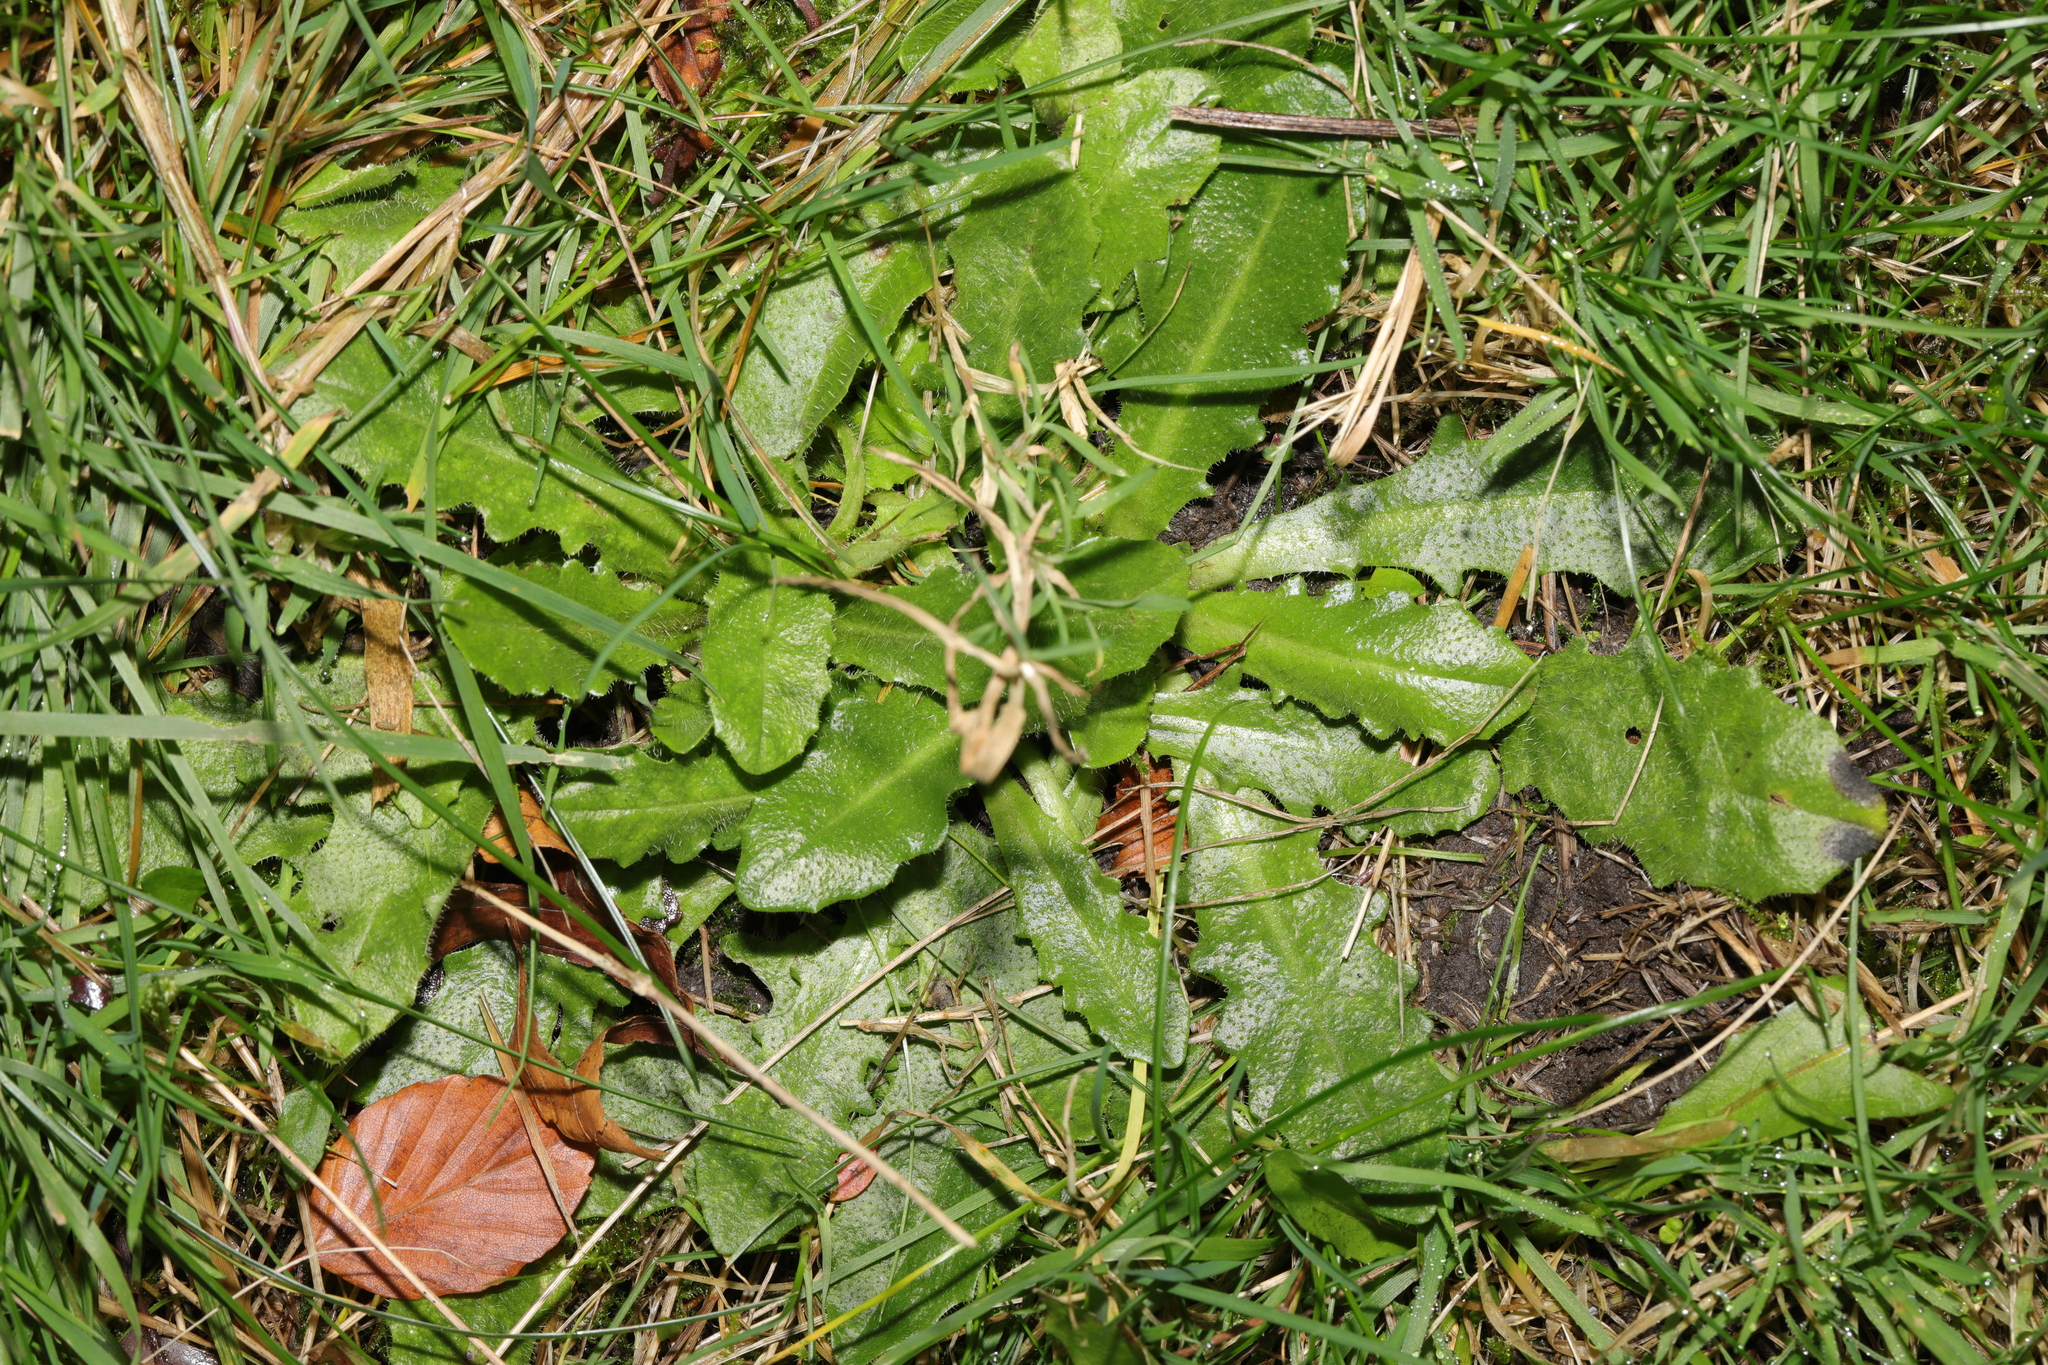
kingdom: Plantae
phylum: Tracheophyta
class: Magnoliopsida
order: Asterales
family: Asteraceae
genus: Hypochaeris
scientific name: Hypochaeris radicata
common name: Flatweed
